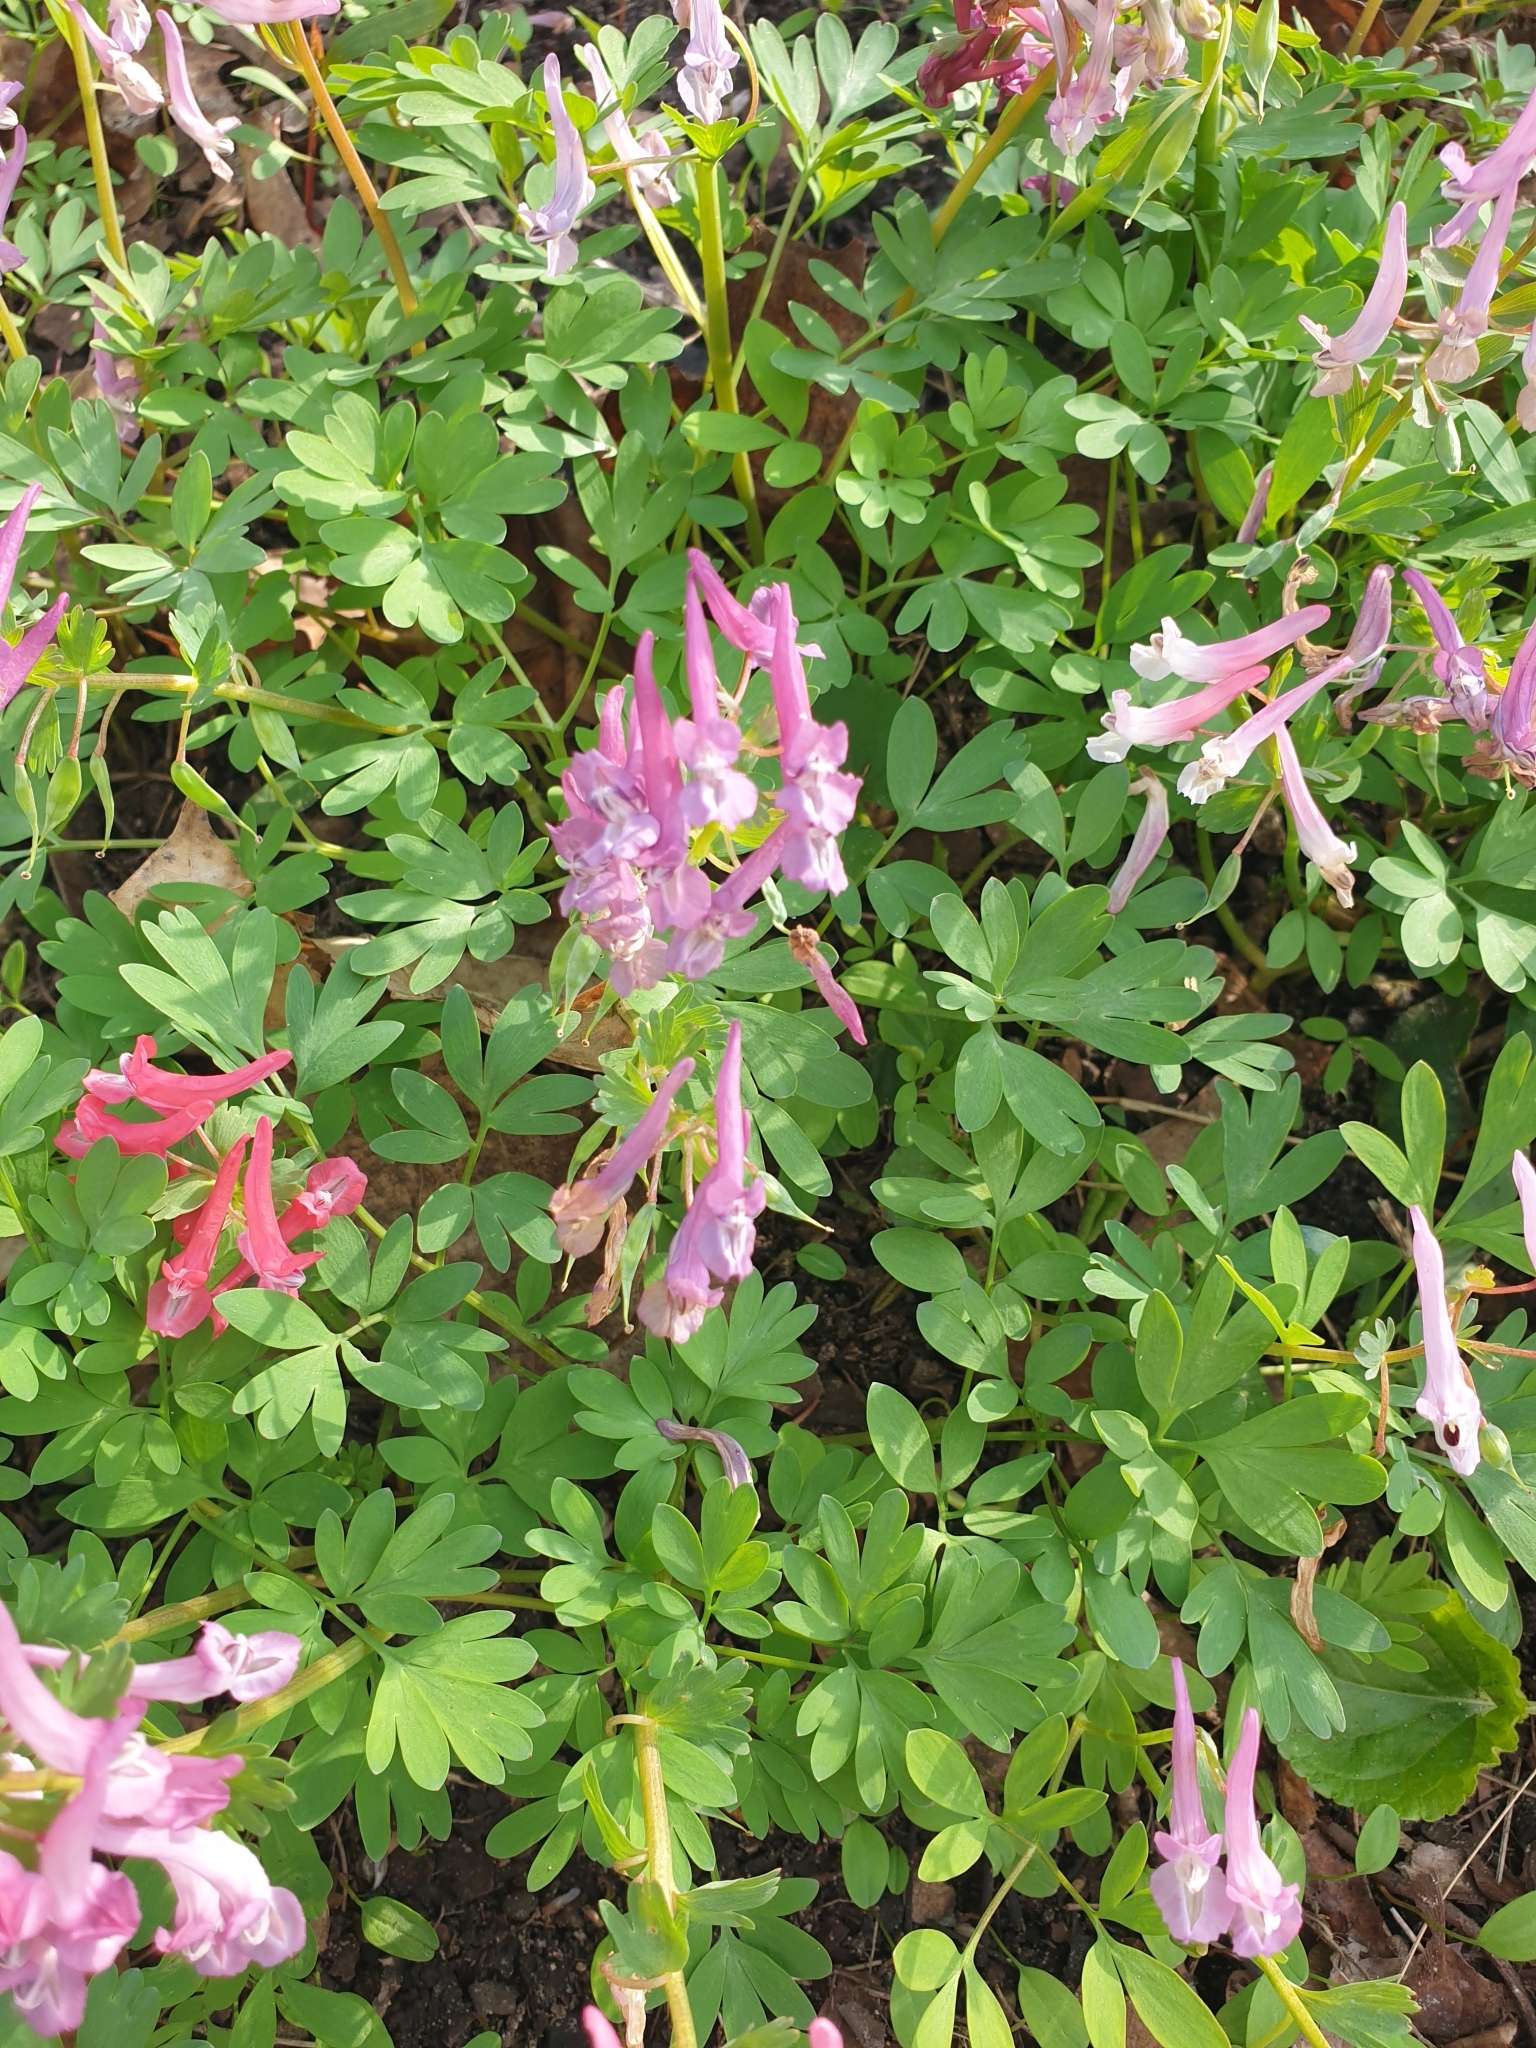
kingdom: Plantae
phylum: Tracheophyta
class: Magnoliopsida
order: Ranunculales
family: Papaveraceae
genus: Corydalis
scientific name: Corydalis solida
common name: Bird-in-a-bush
